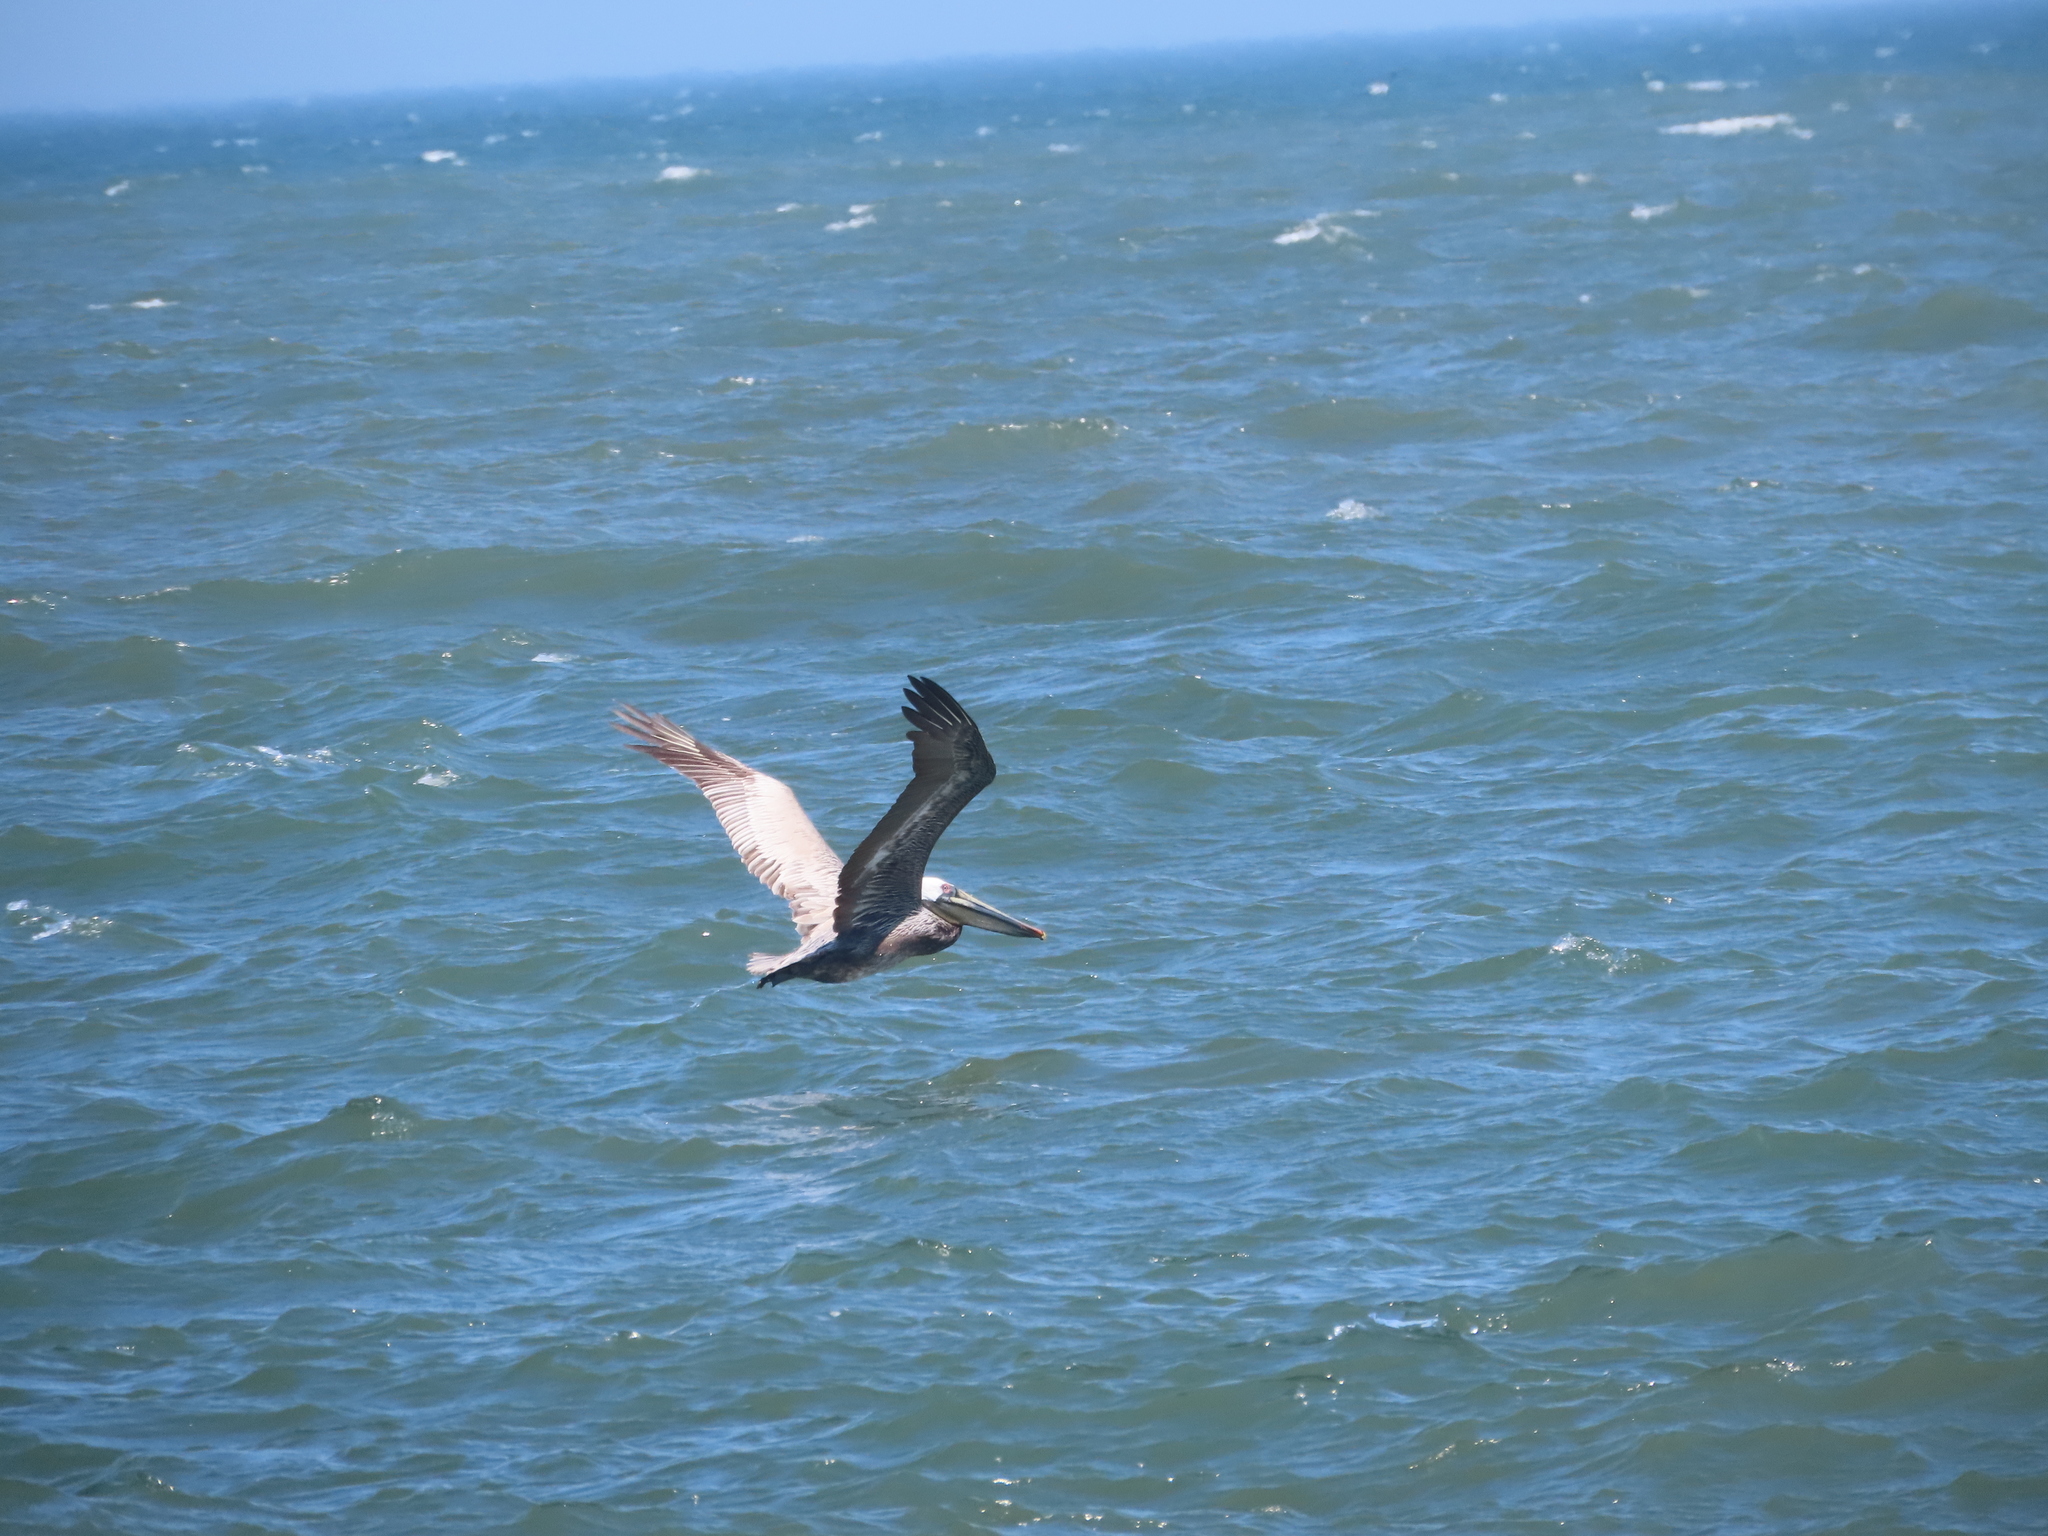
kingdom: Animalia
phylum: Chordata
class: Aves
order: Pelecaniformes
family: Pelecanidae
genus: Pelecanus
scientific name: Pelecanus occidentalis
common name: Brown pelican
